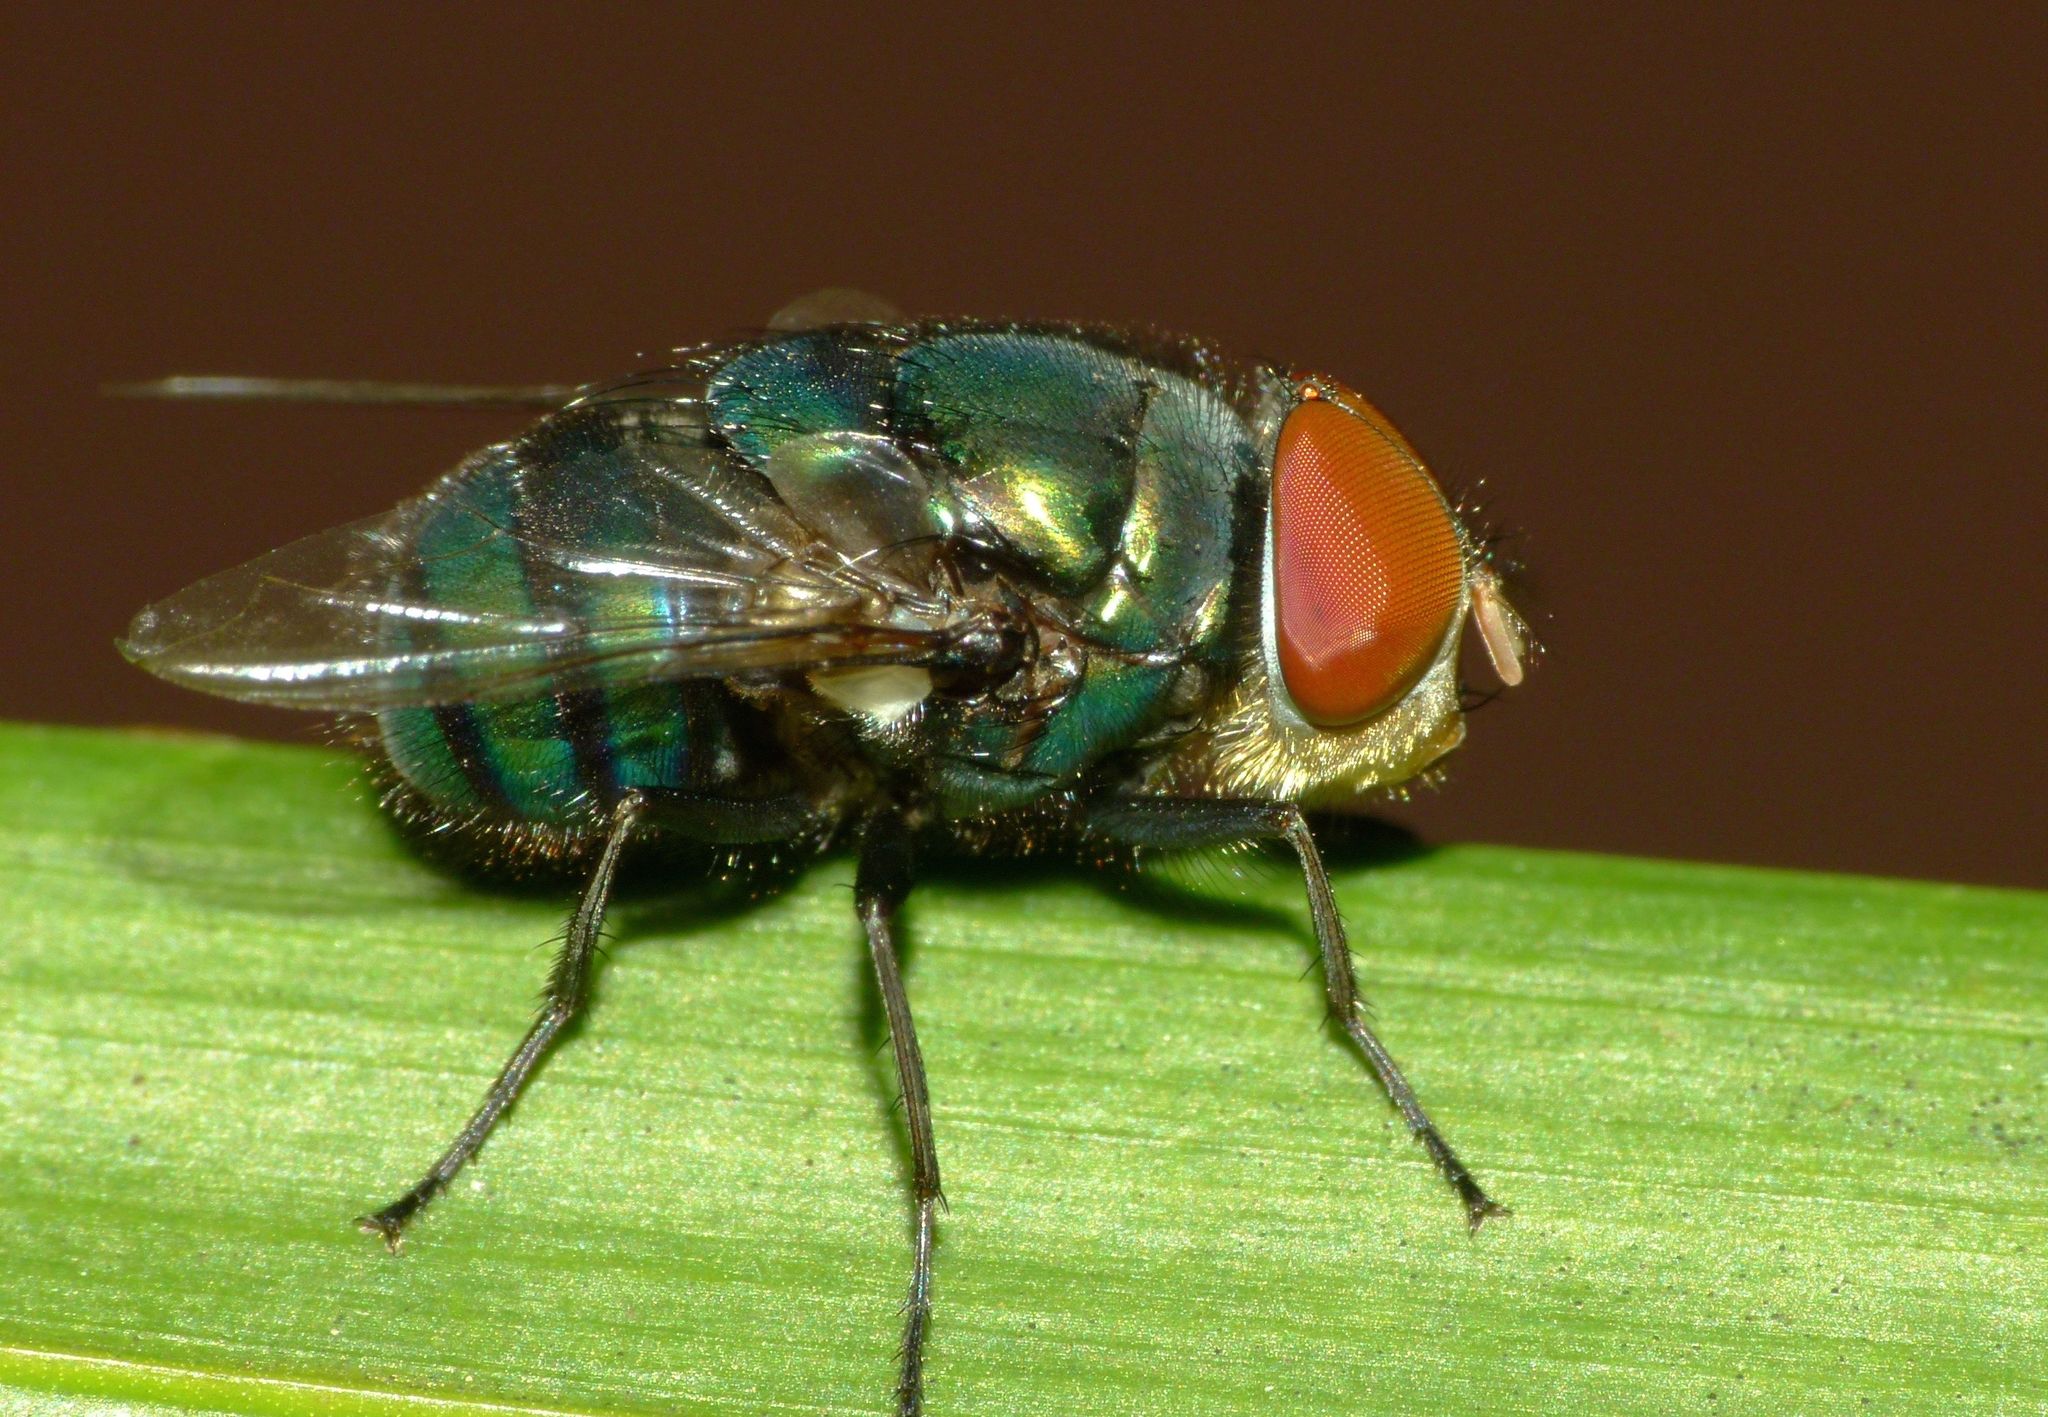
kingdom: Animalia
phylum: Arthropoda
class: Insecta
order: Diptera
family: Calliphoridae
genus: Chrysomya
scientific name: Chrysomya megacephala
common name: Blow fly
